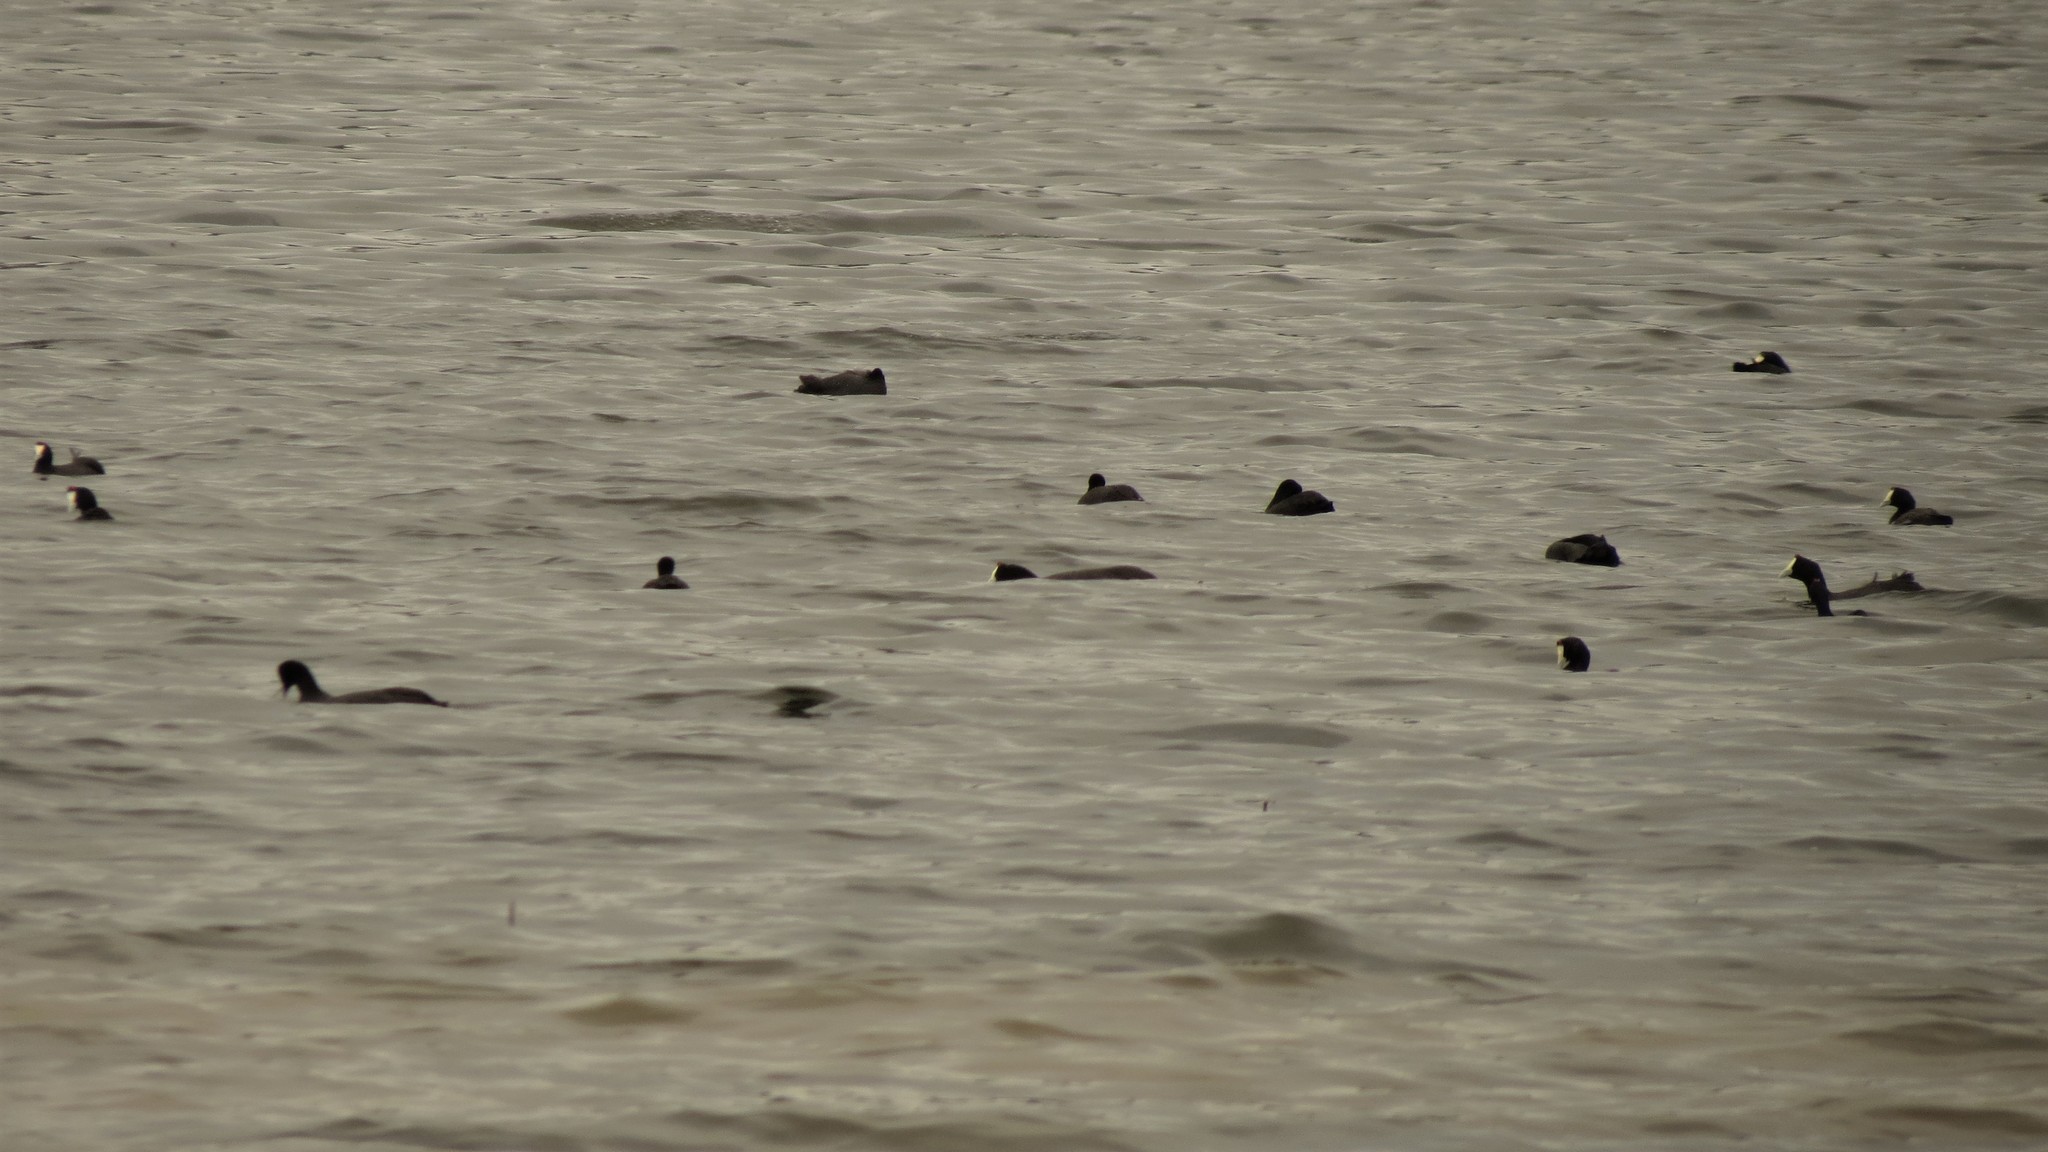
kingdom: Animalia
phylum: Chordata
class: Aves
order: Gruiformes
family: Rallidae
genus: Fulica
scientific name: Fulica cristata
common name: Red-knobbed coot
